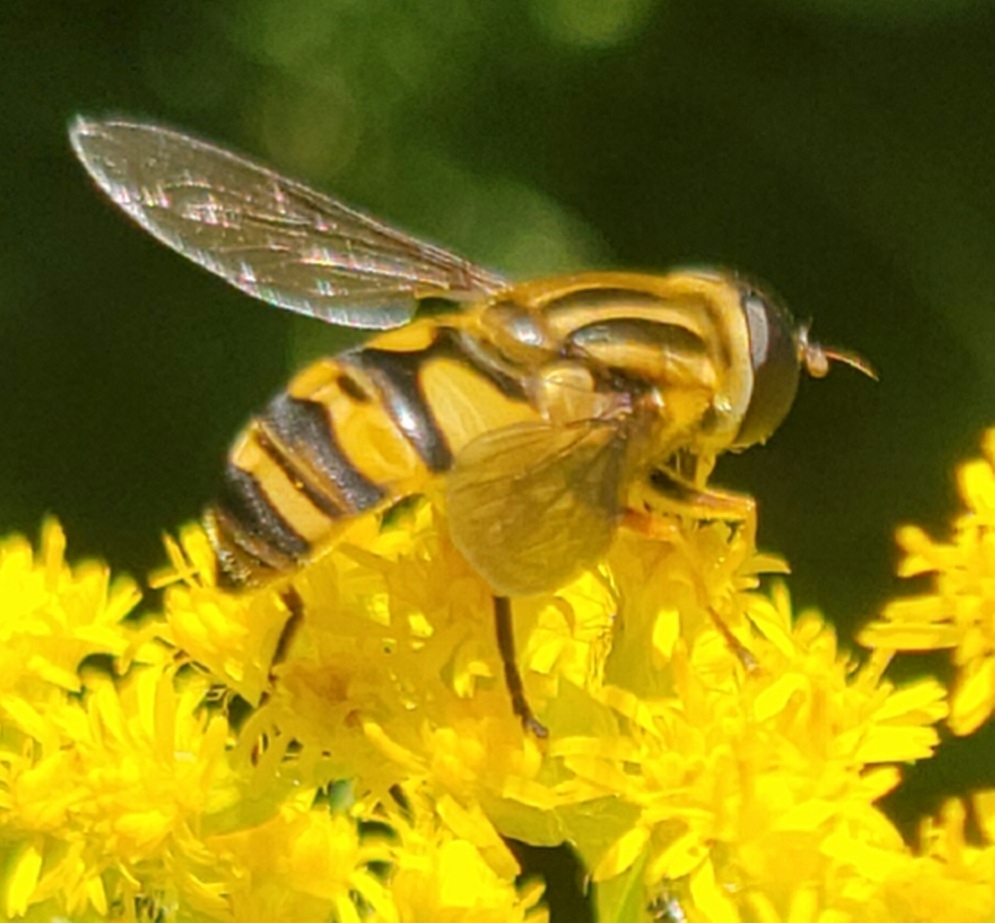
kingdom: Animalia
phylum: Arthropoda
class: Insecta
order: Diptera
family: Syrphidae
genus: Helophilus
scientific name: Helophilus fasciatus
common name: Narrow-headed marsh fly
